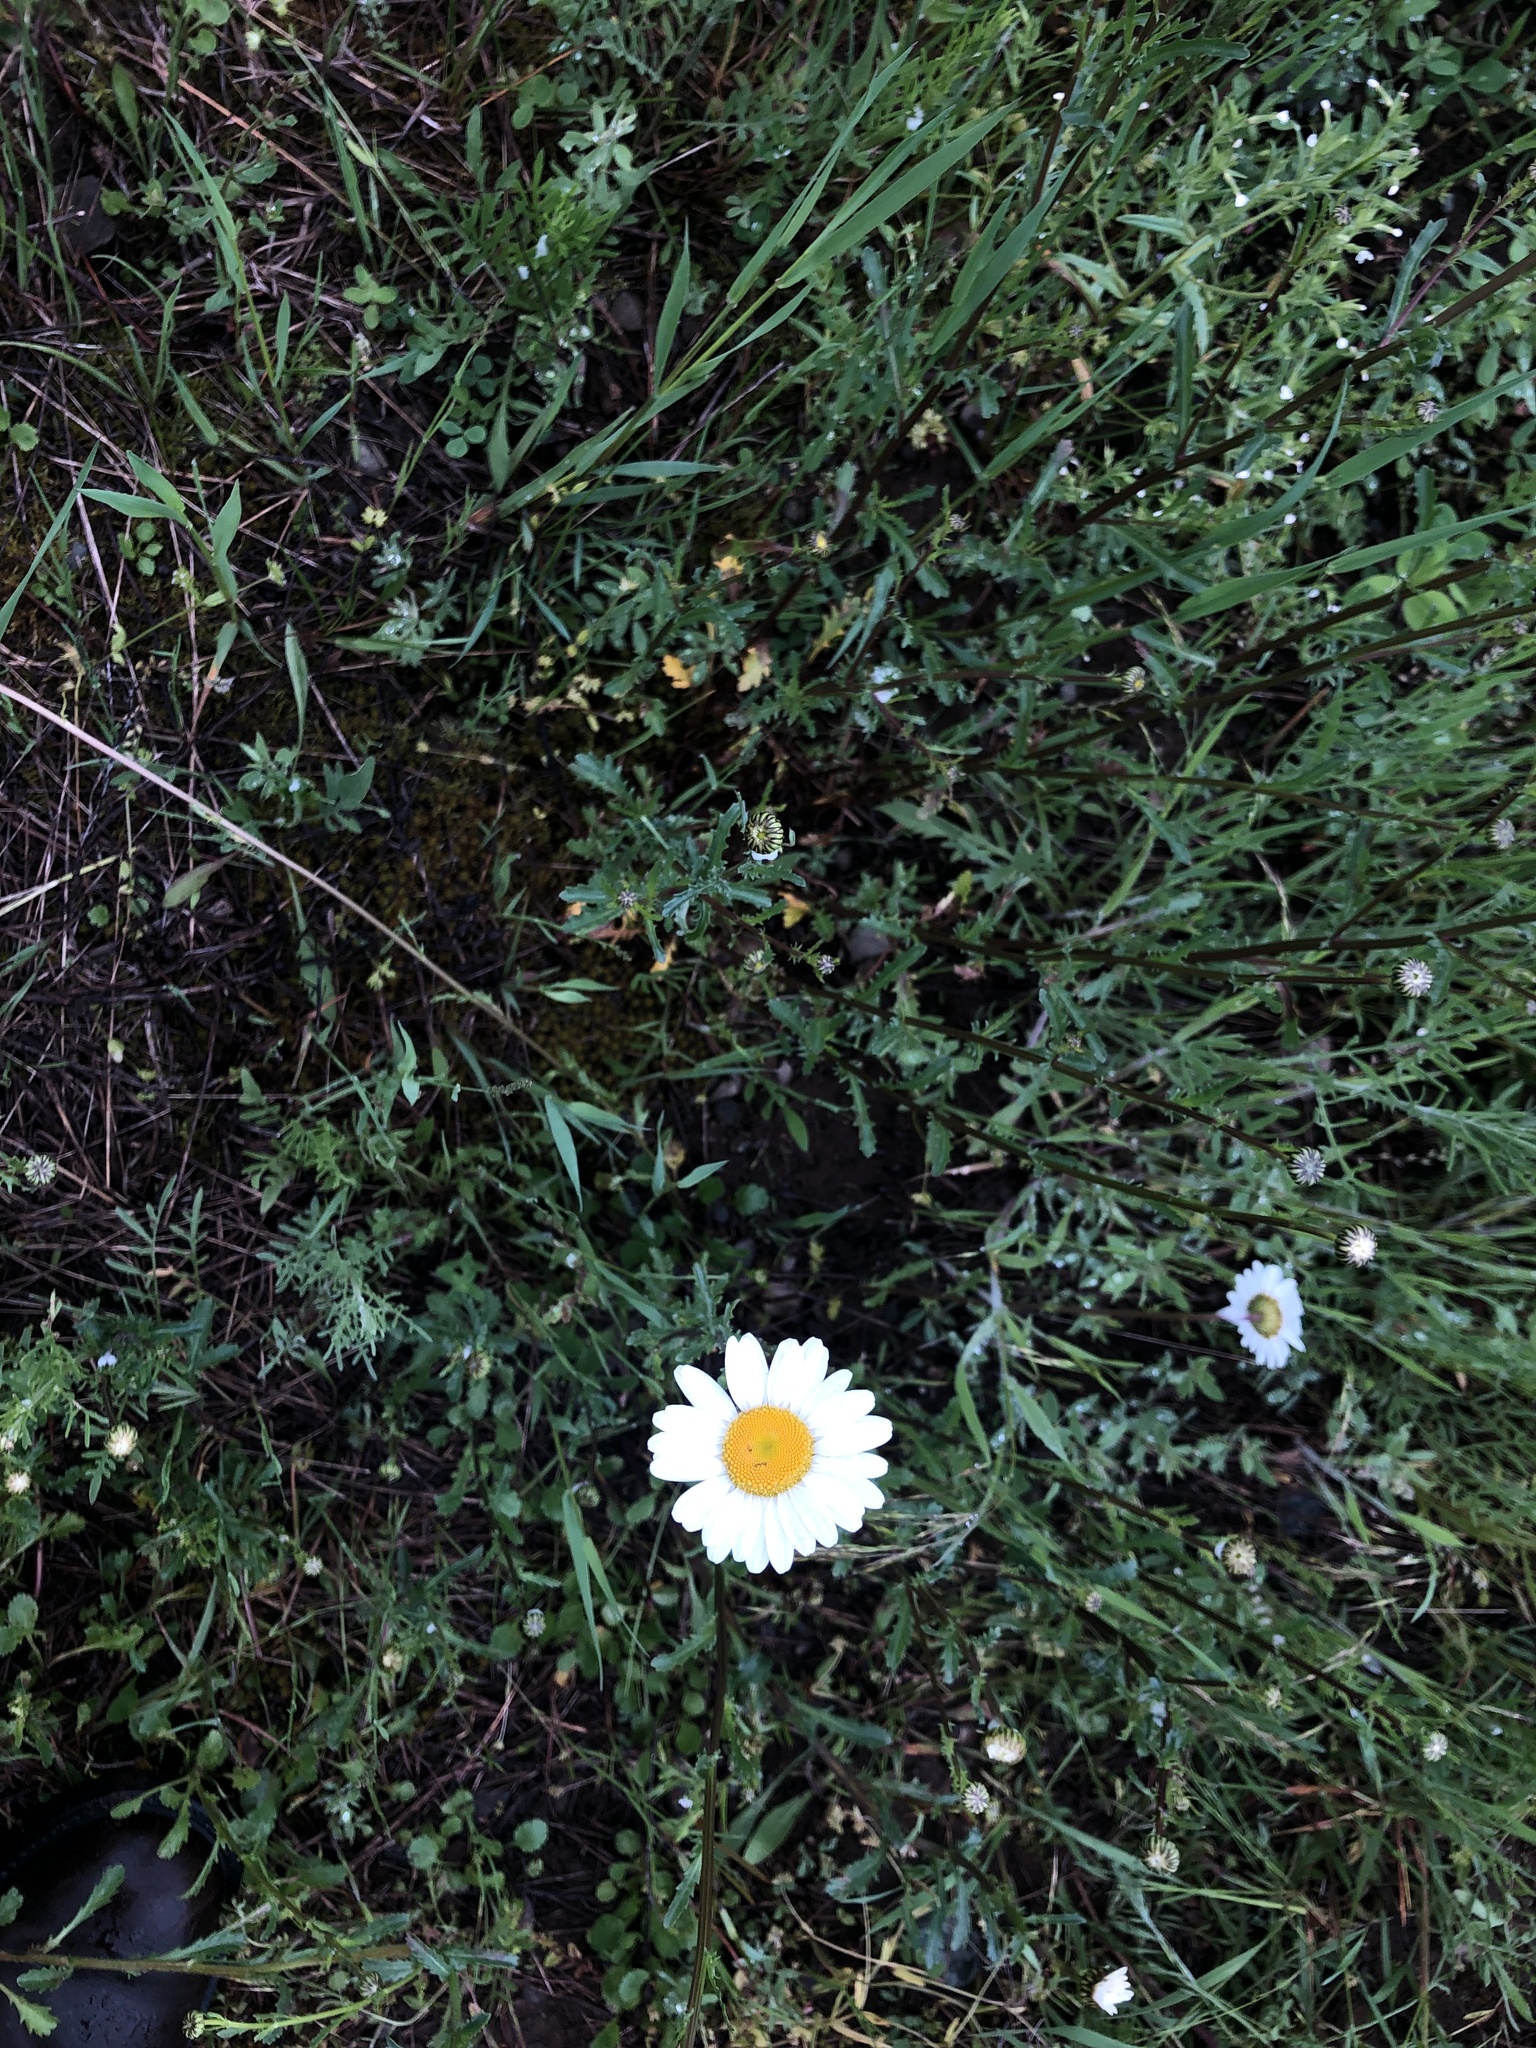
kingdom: Plantae
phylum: Tracheophyta
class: Magnoliopsida
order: Asterales
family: Asteraceae
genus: Leucanthemum
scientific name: Leucanthemum vulgare
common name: Oxeye daisy
